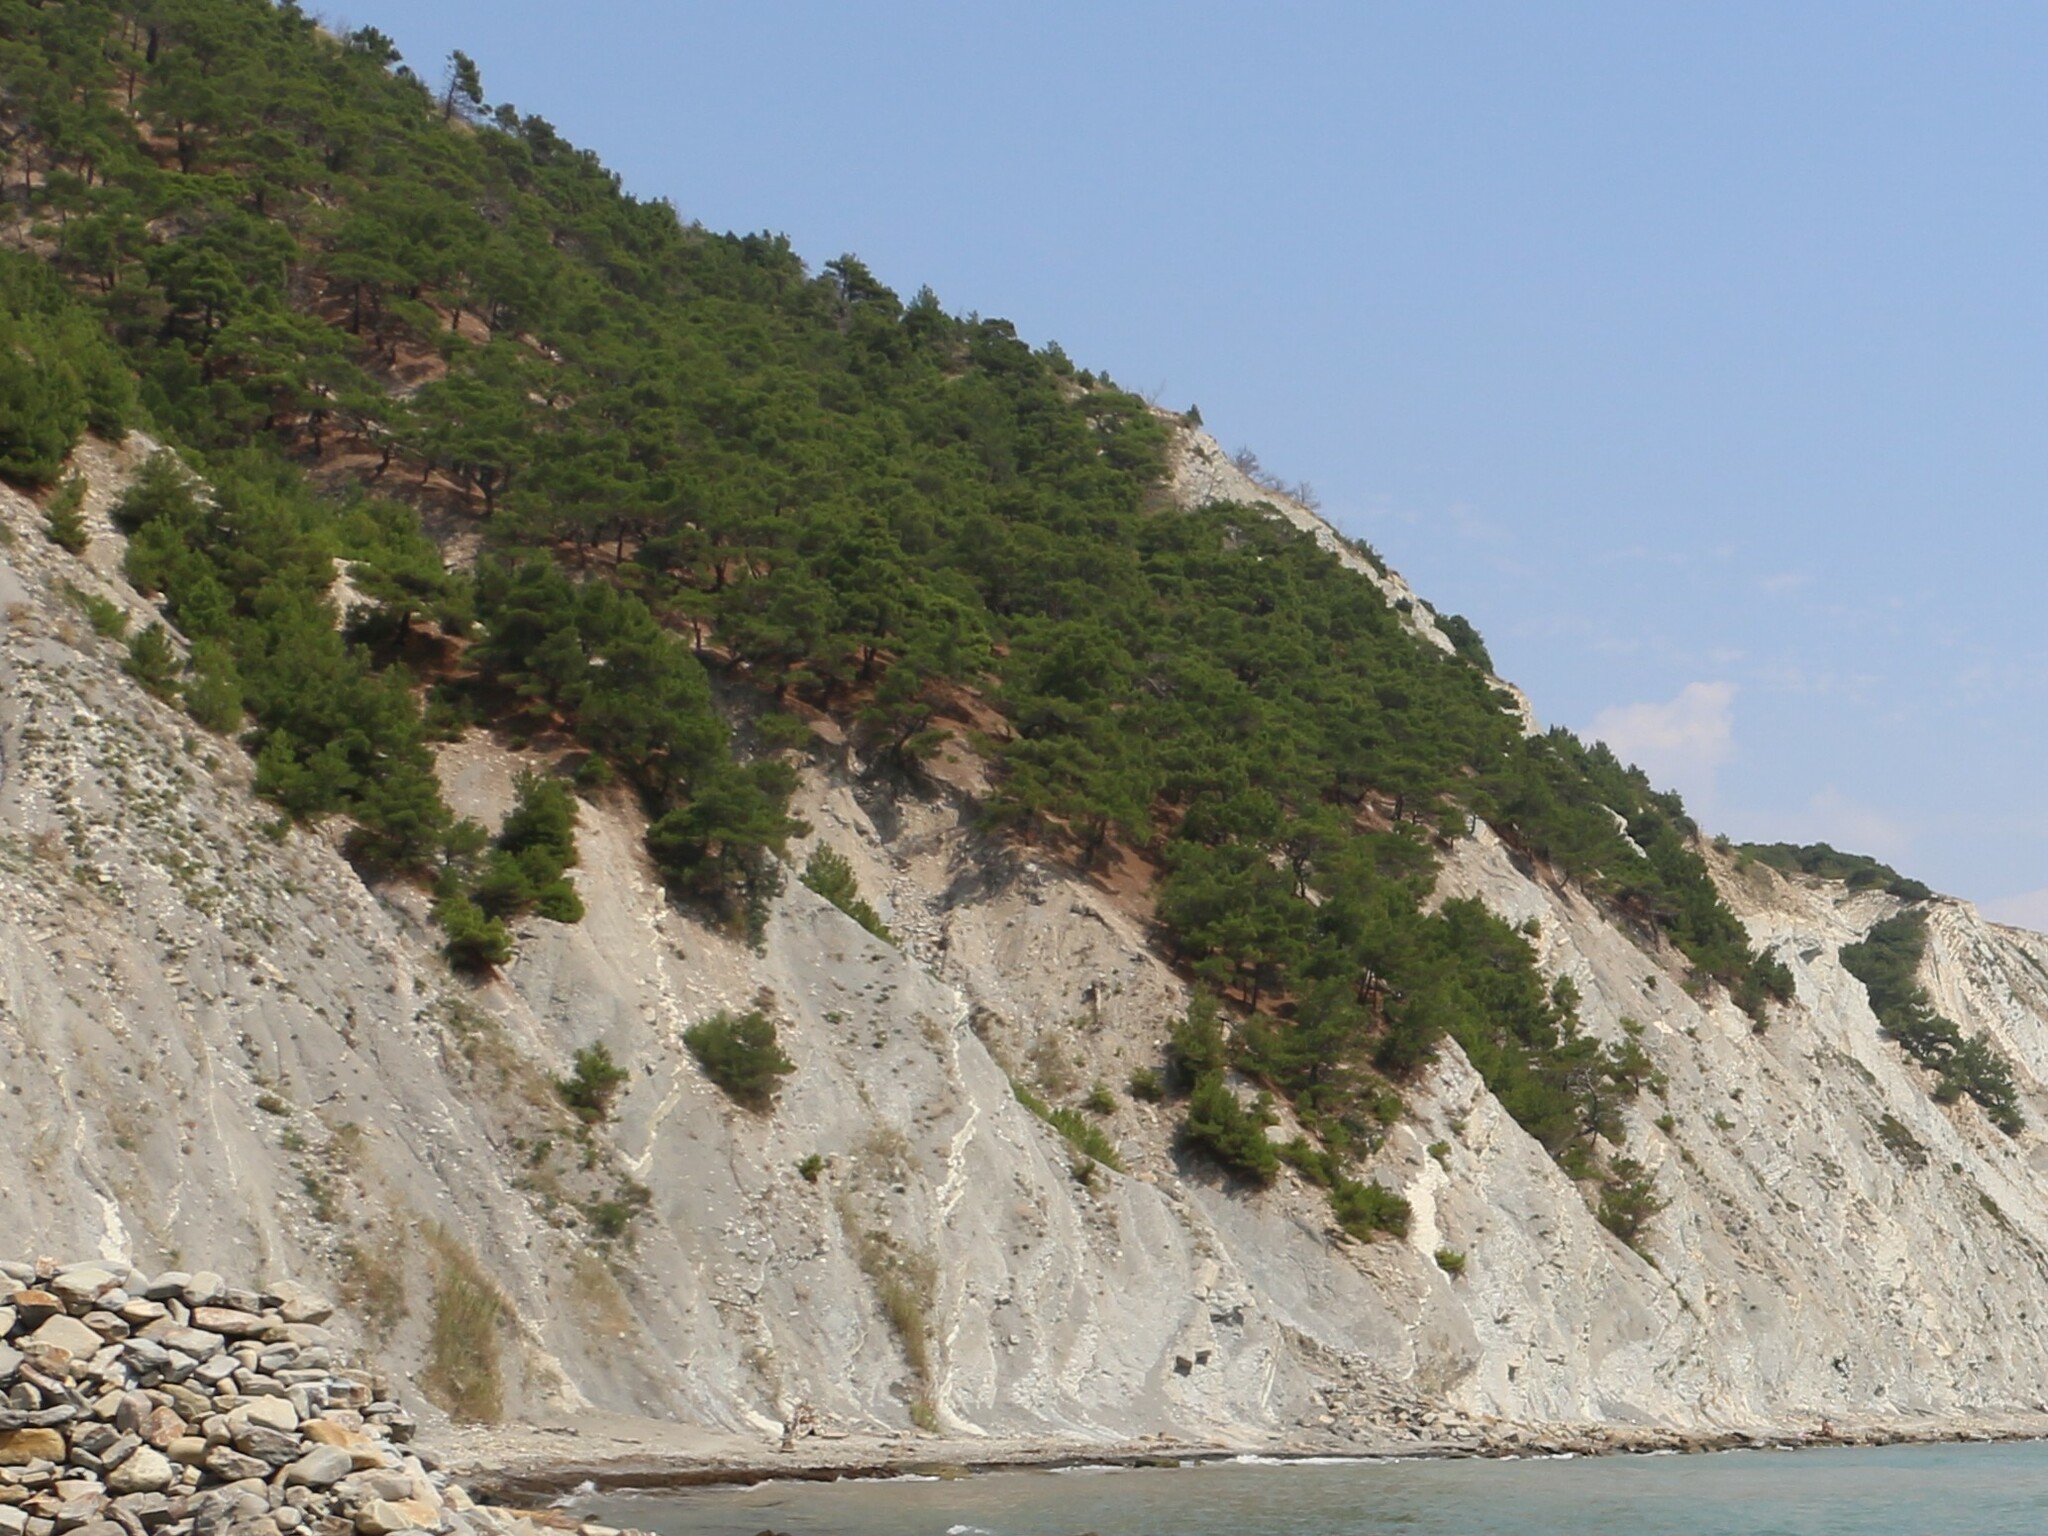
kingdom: Plantae
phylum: Tracheophyta
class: Pinopsida
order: Pinales
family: Pinaceae
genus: Pinus
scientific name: Pinus brutia
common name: Turkish pine
